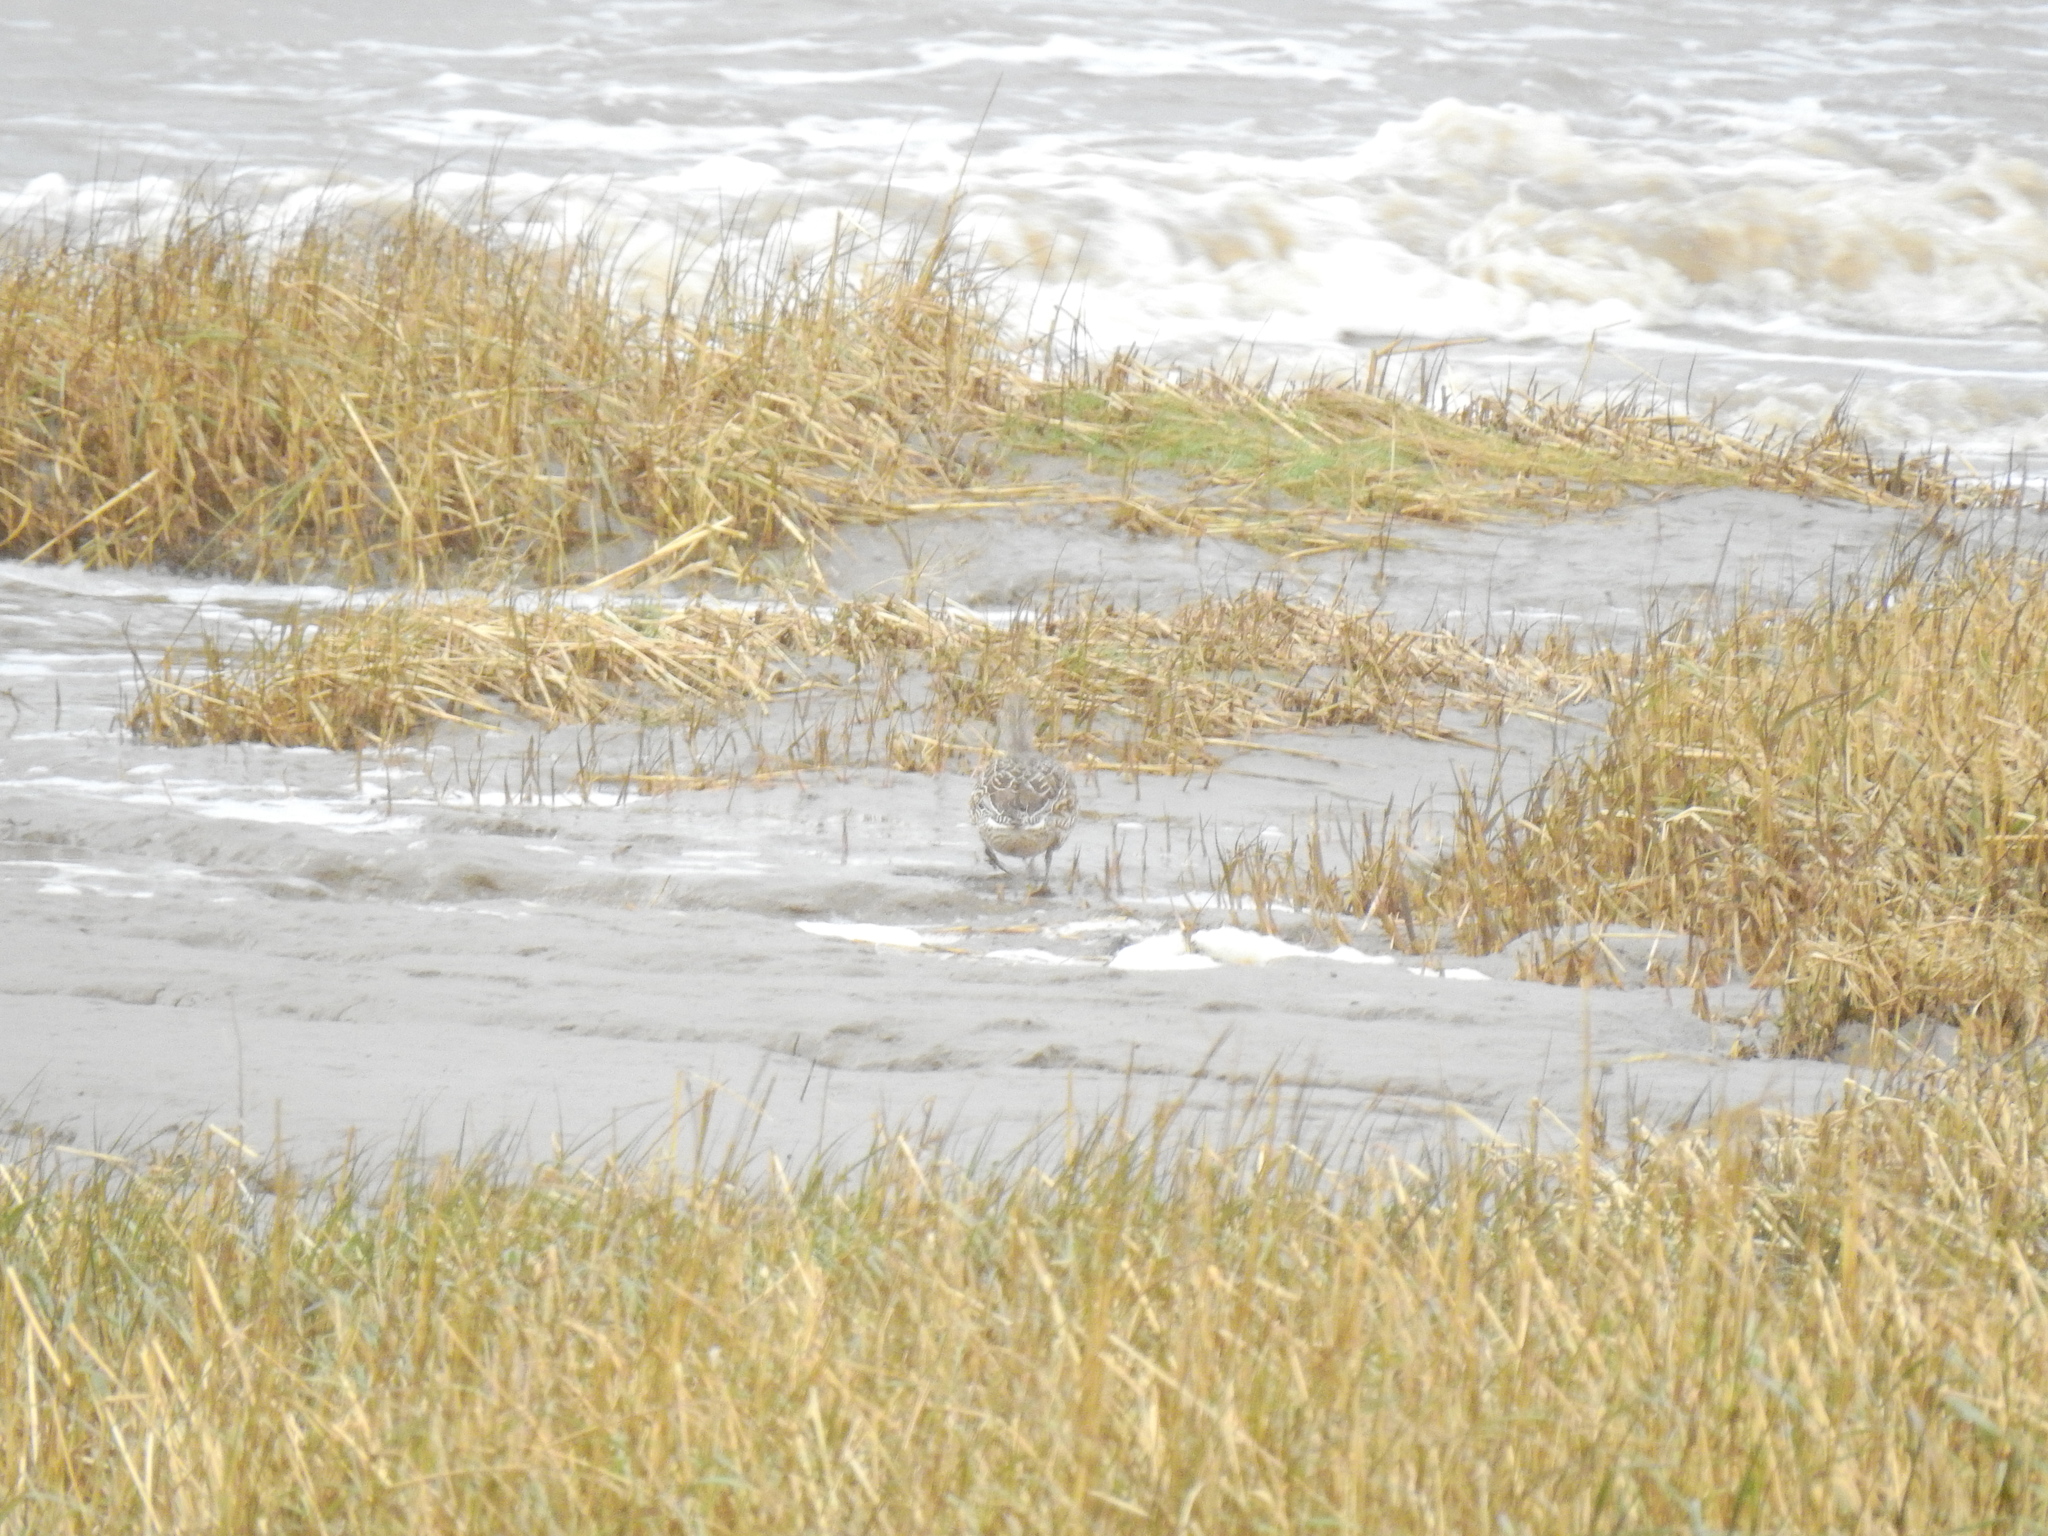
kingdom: Animalia
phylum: Chordata
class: Aves
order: Anseriformes
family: Anatidae
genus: Anas
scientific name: Anas crecca
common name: Eurasian teal
